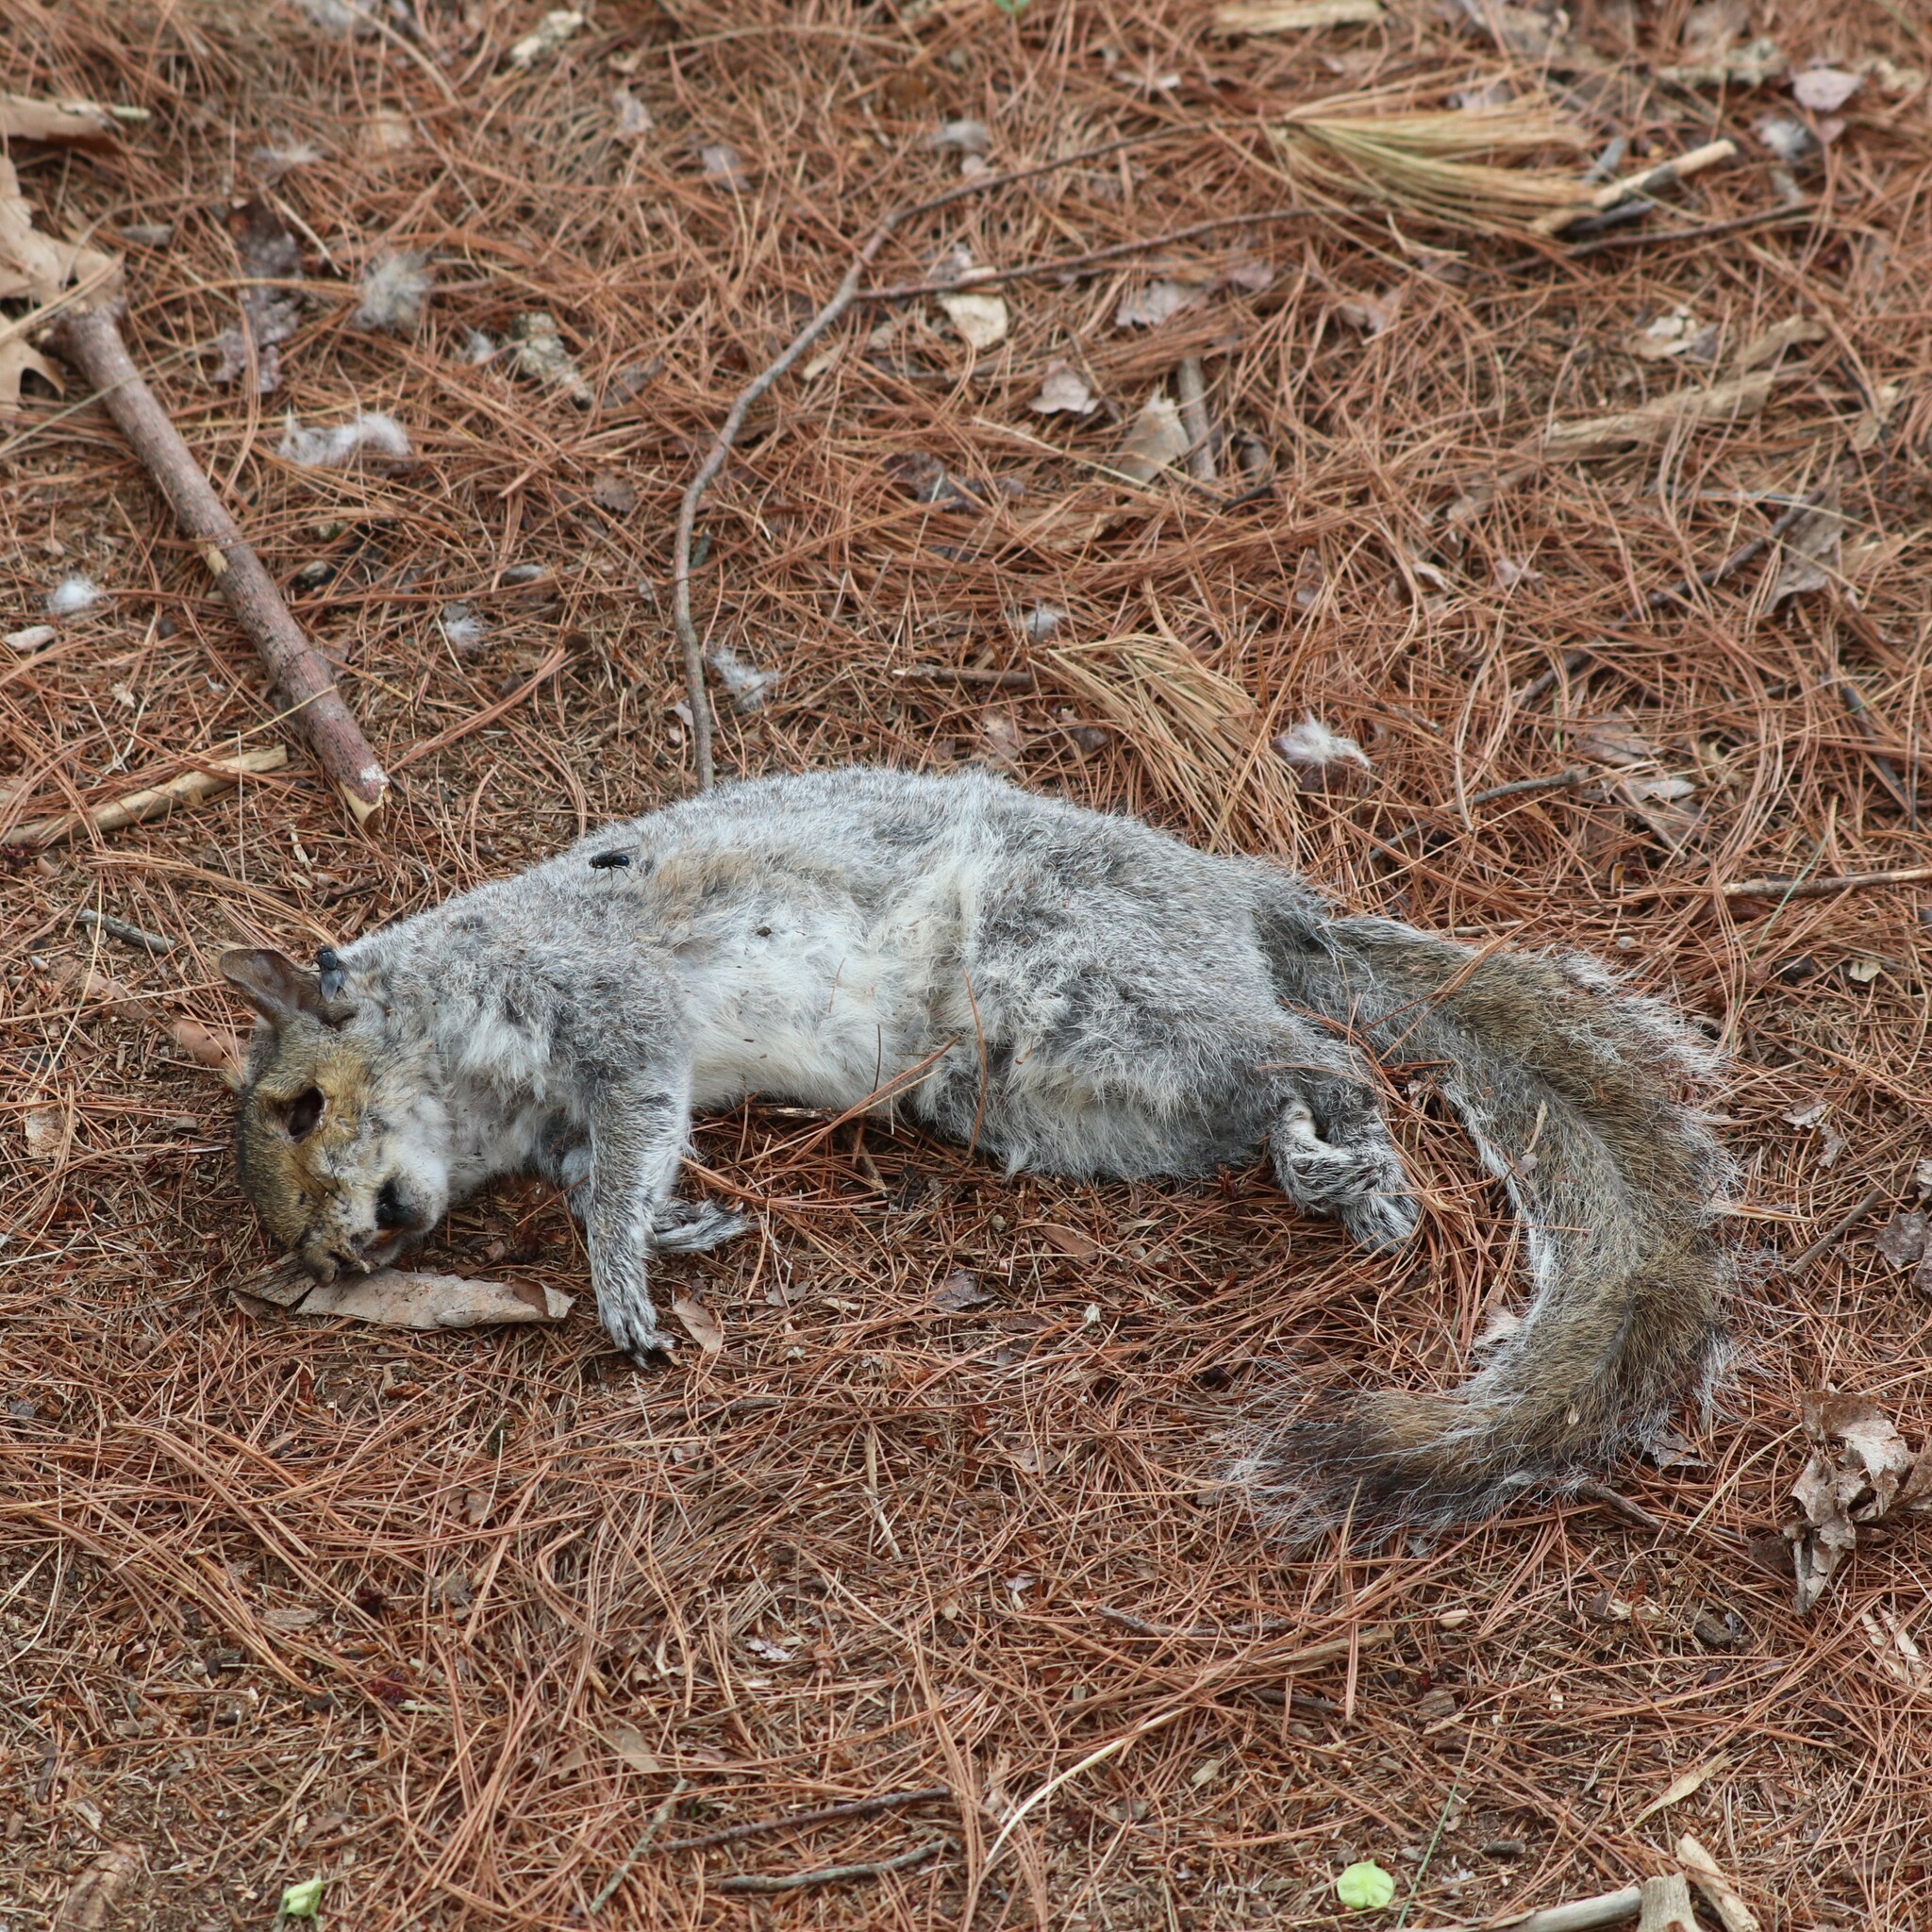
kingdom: Animalia
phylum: Chordata
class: Mammalia
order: Rodentia
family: Sciuridae
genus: Sciurus
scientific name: Sciurus carolinensis
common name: Eastern gray squirrel
